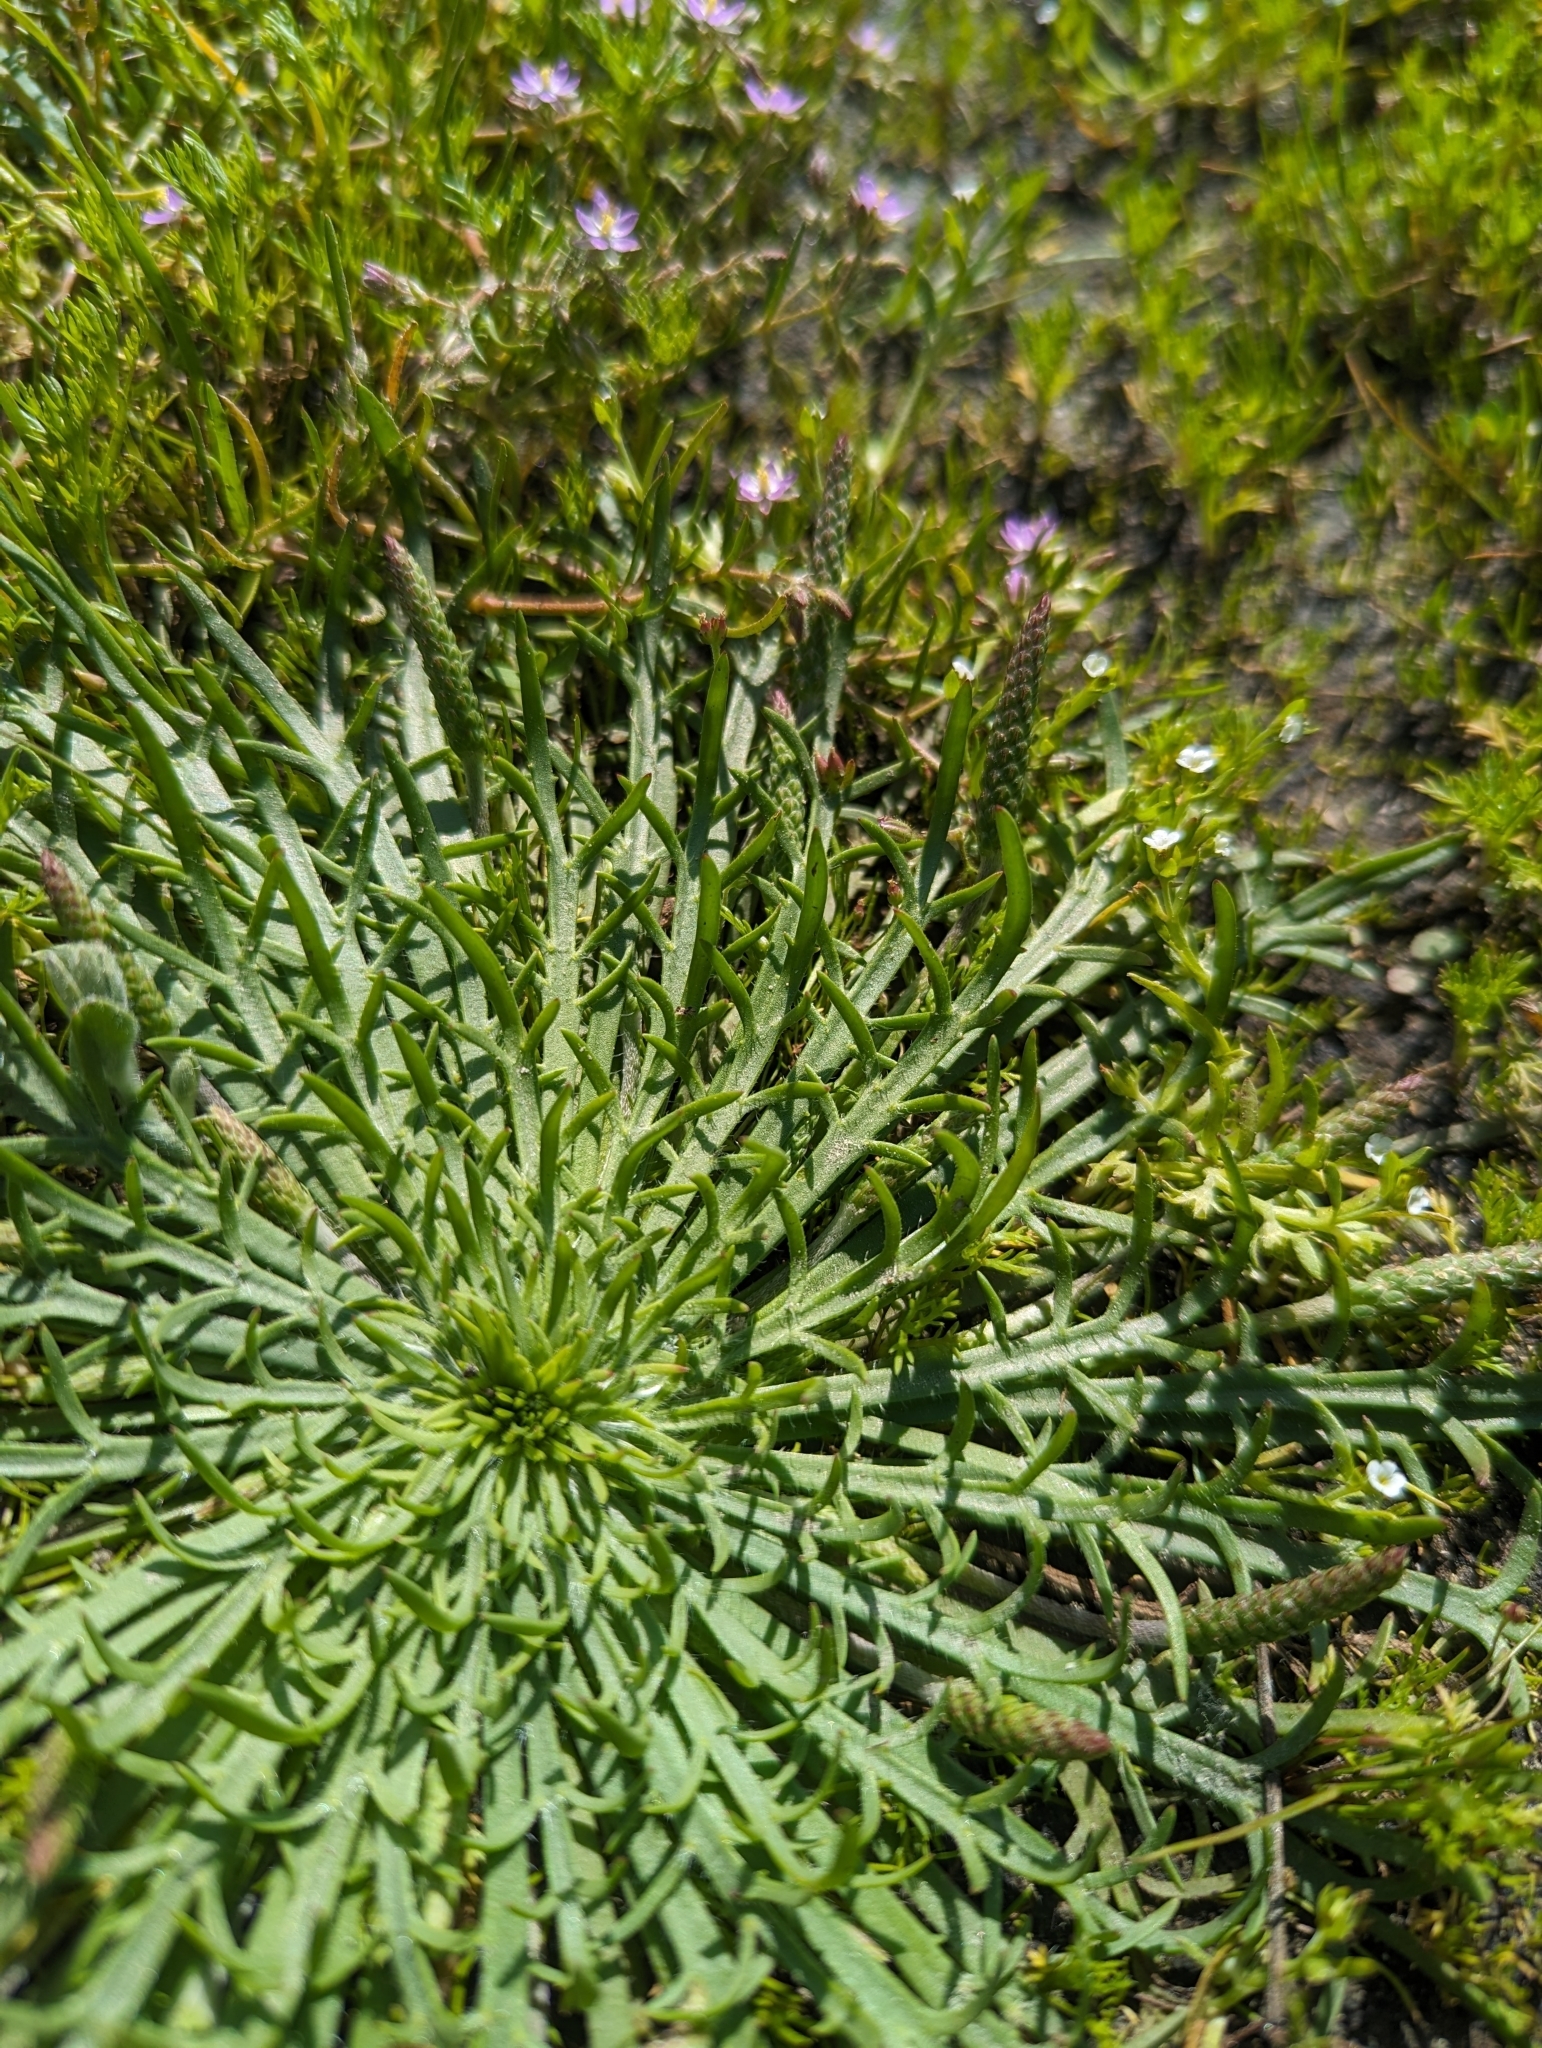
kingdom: Plantae
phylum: Tracheophyta
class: Magnoliopsida
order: Lamiales
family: Plantaginaceae
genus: Plantago
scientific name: Plantago coronopus
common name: Buck's-horn plantain
